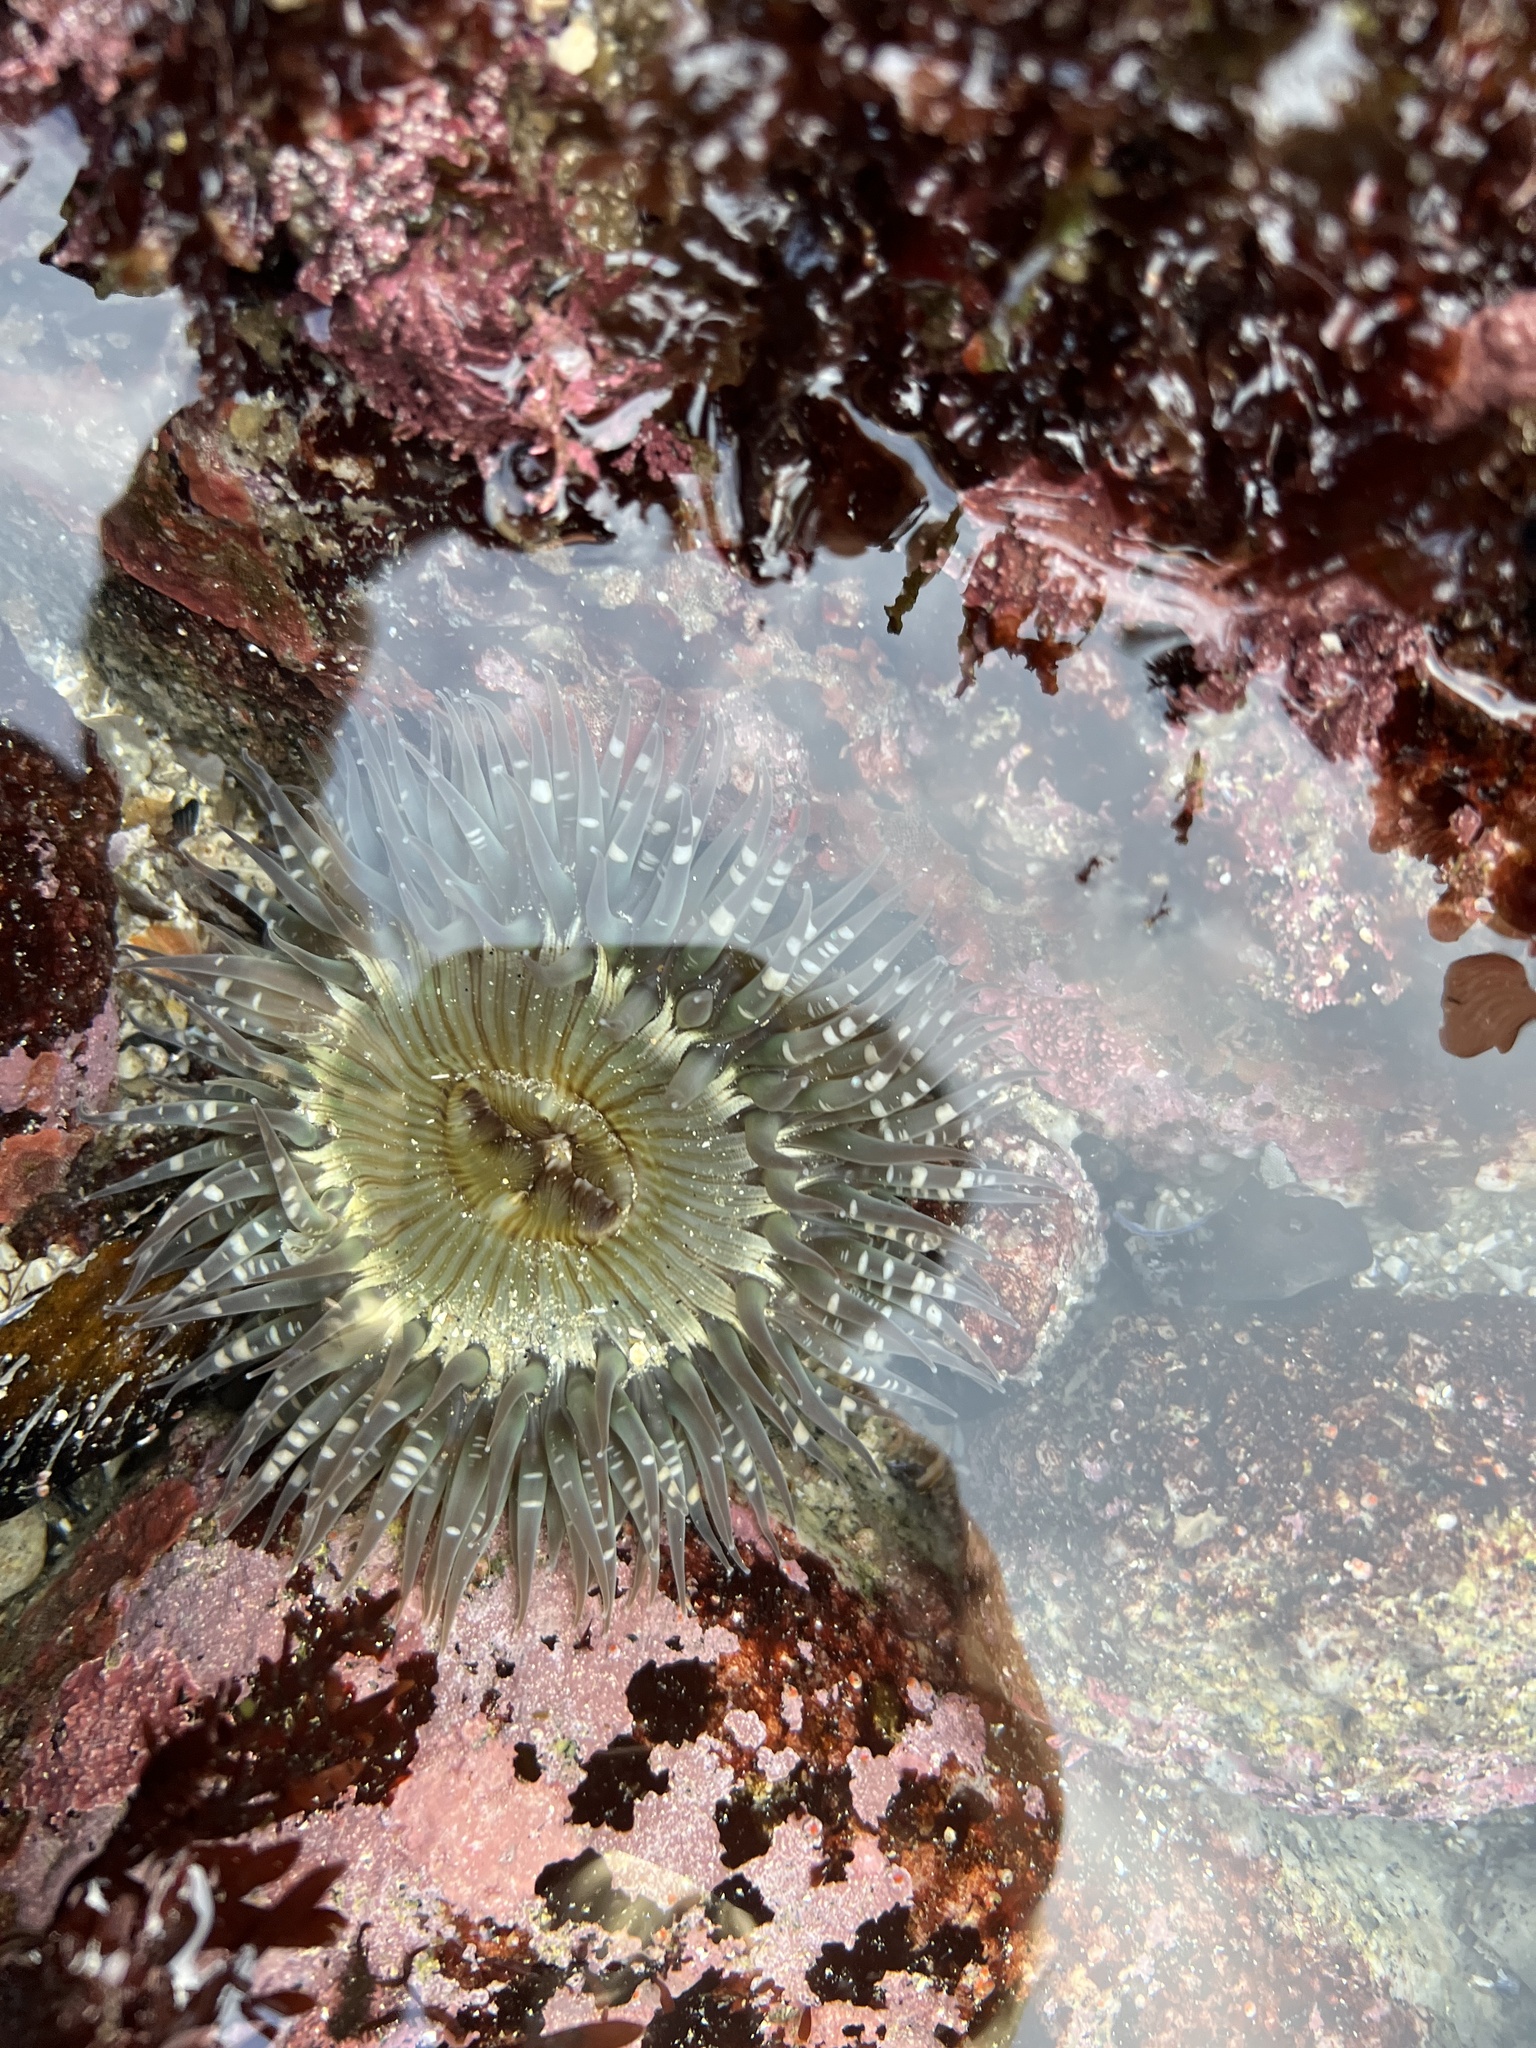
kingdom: Animalia
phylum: Cnidaria
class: Anthozoa
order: Actiniaria
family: Actiniidae
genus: Anthopleura
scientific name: Anthopleura sola
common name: Sun anemone
